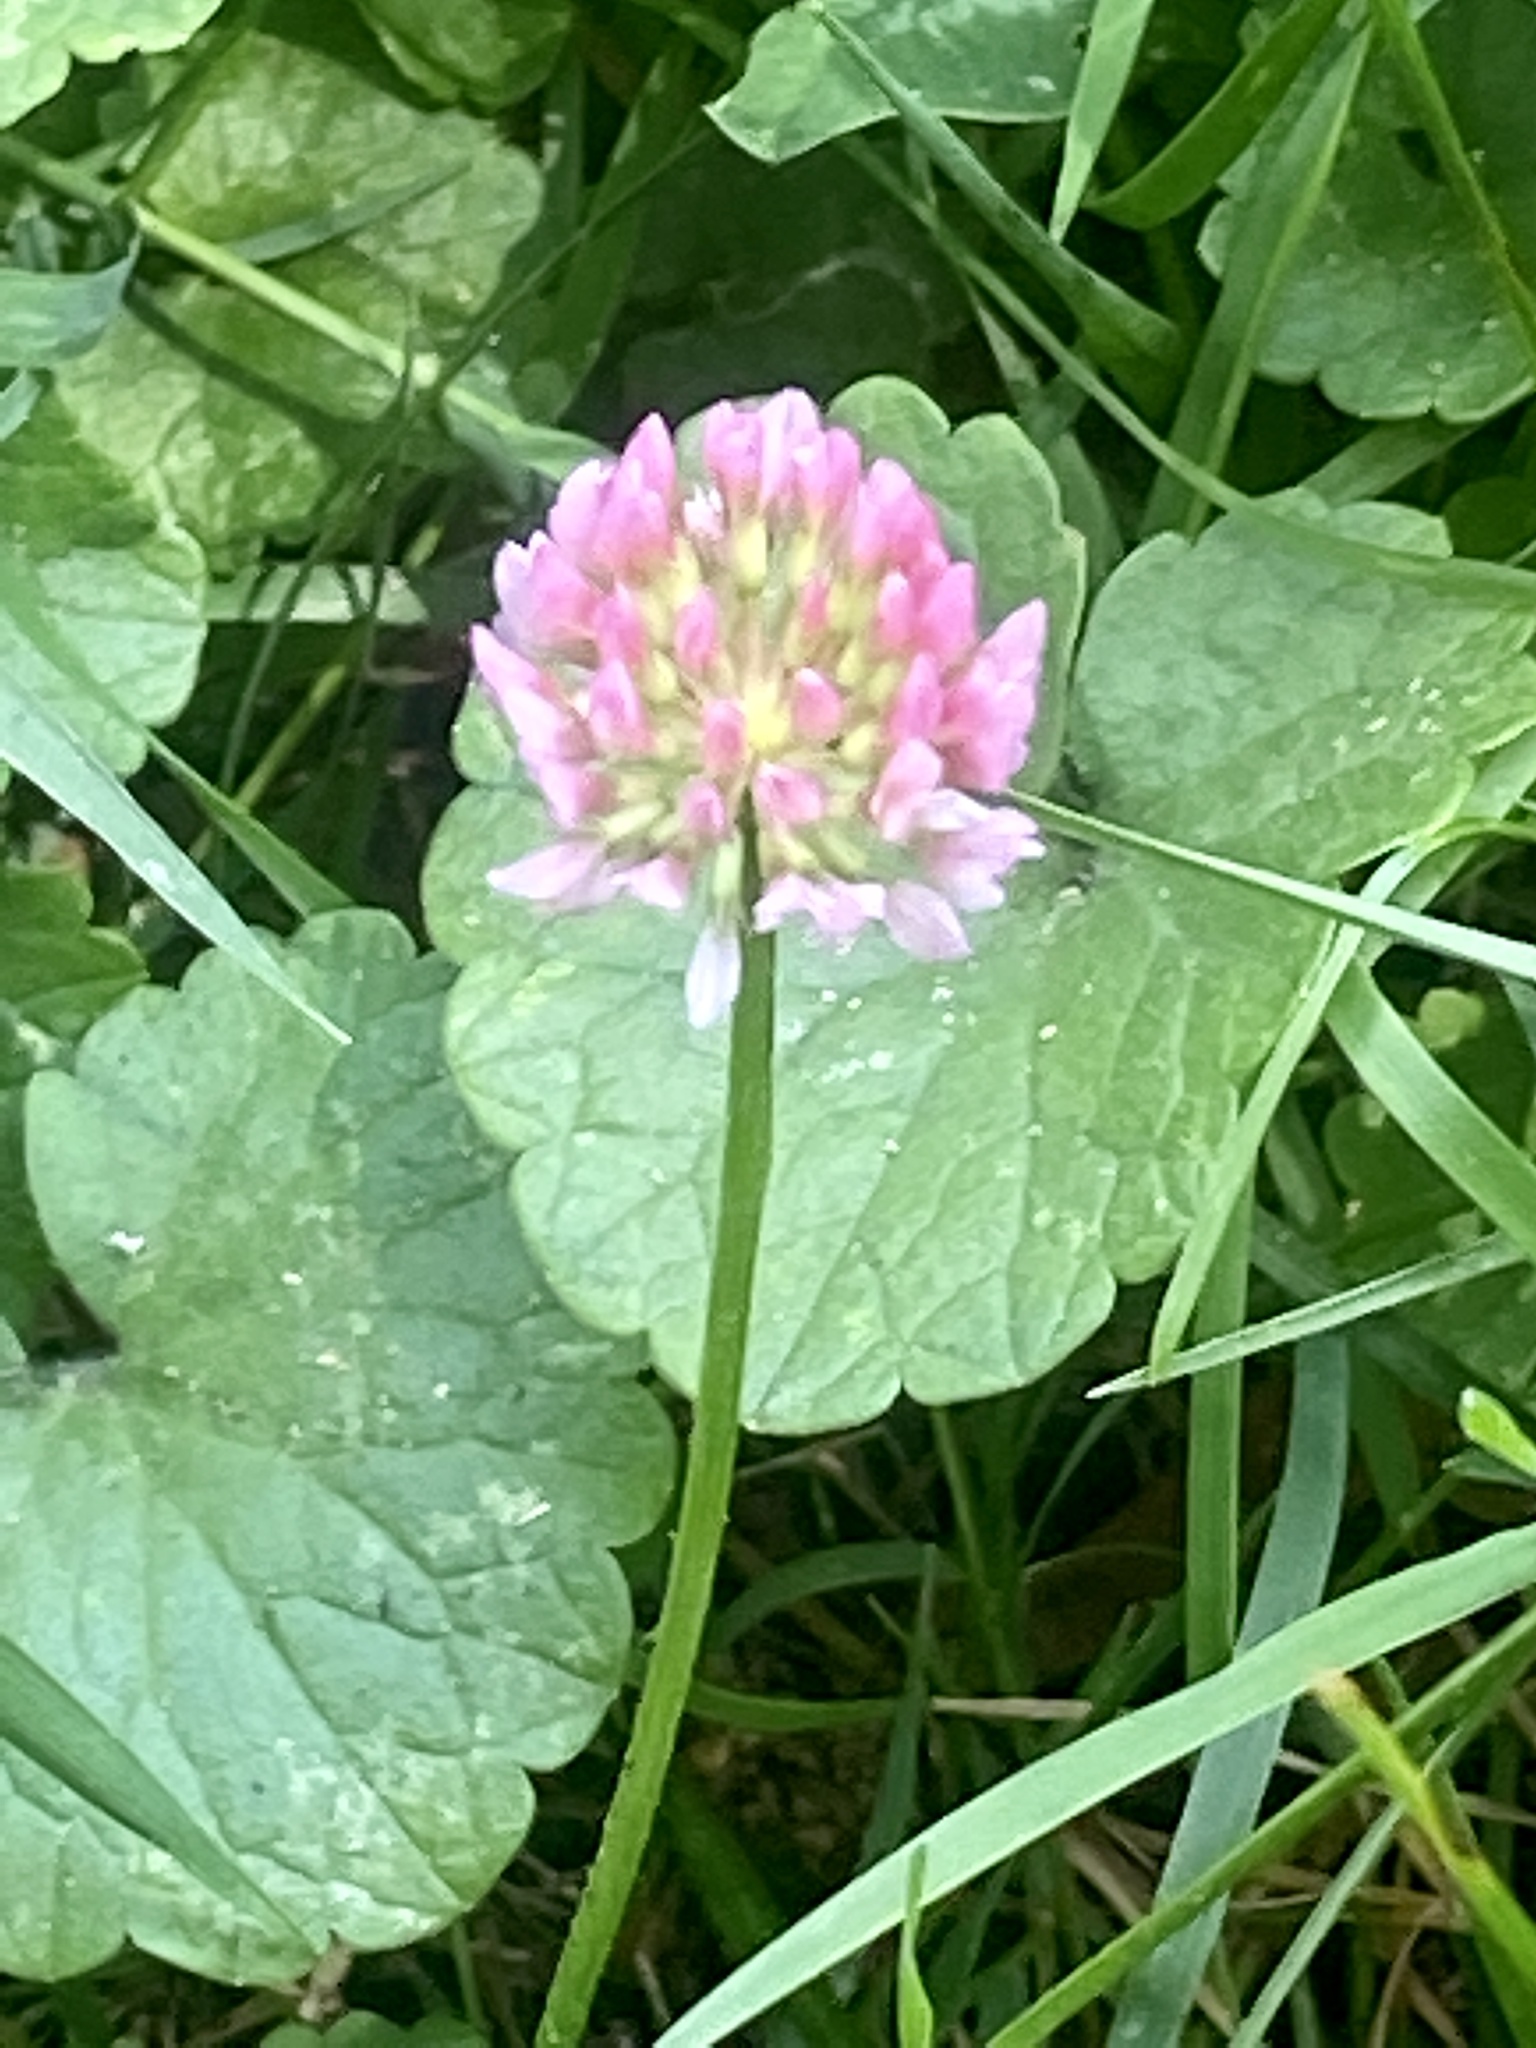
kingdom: Plantae
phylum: Tracheophyta
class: Magnoliopsida
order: Fabales
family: Fabaceae
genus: Trifolium
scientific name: Trifolium repens
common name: White clover
